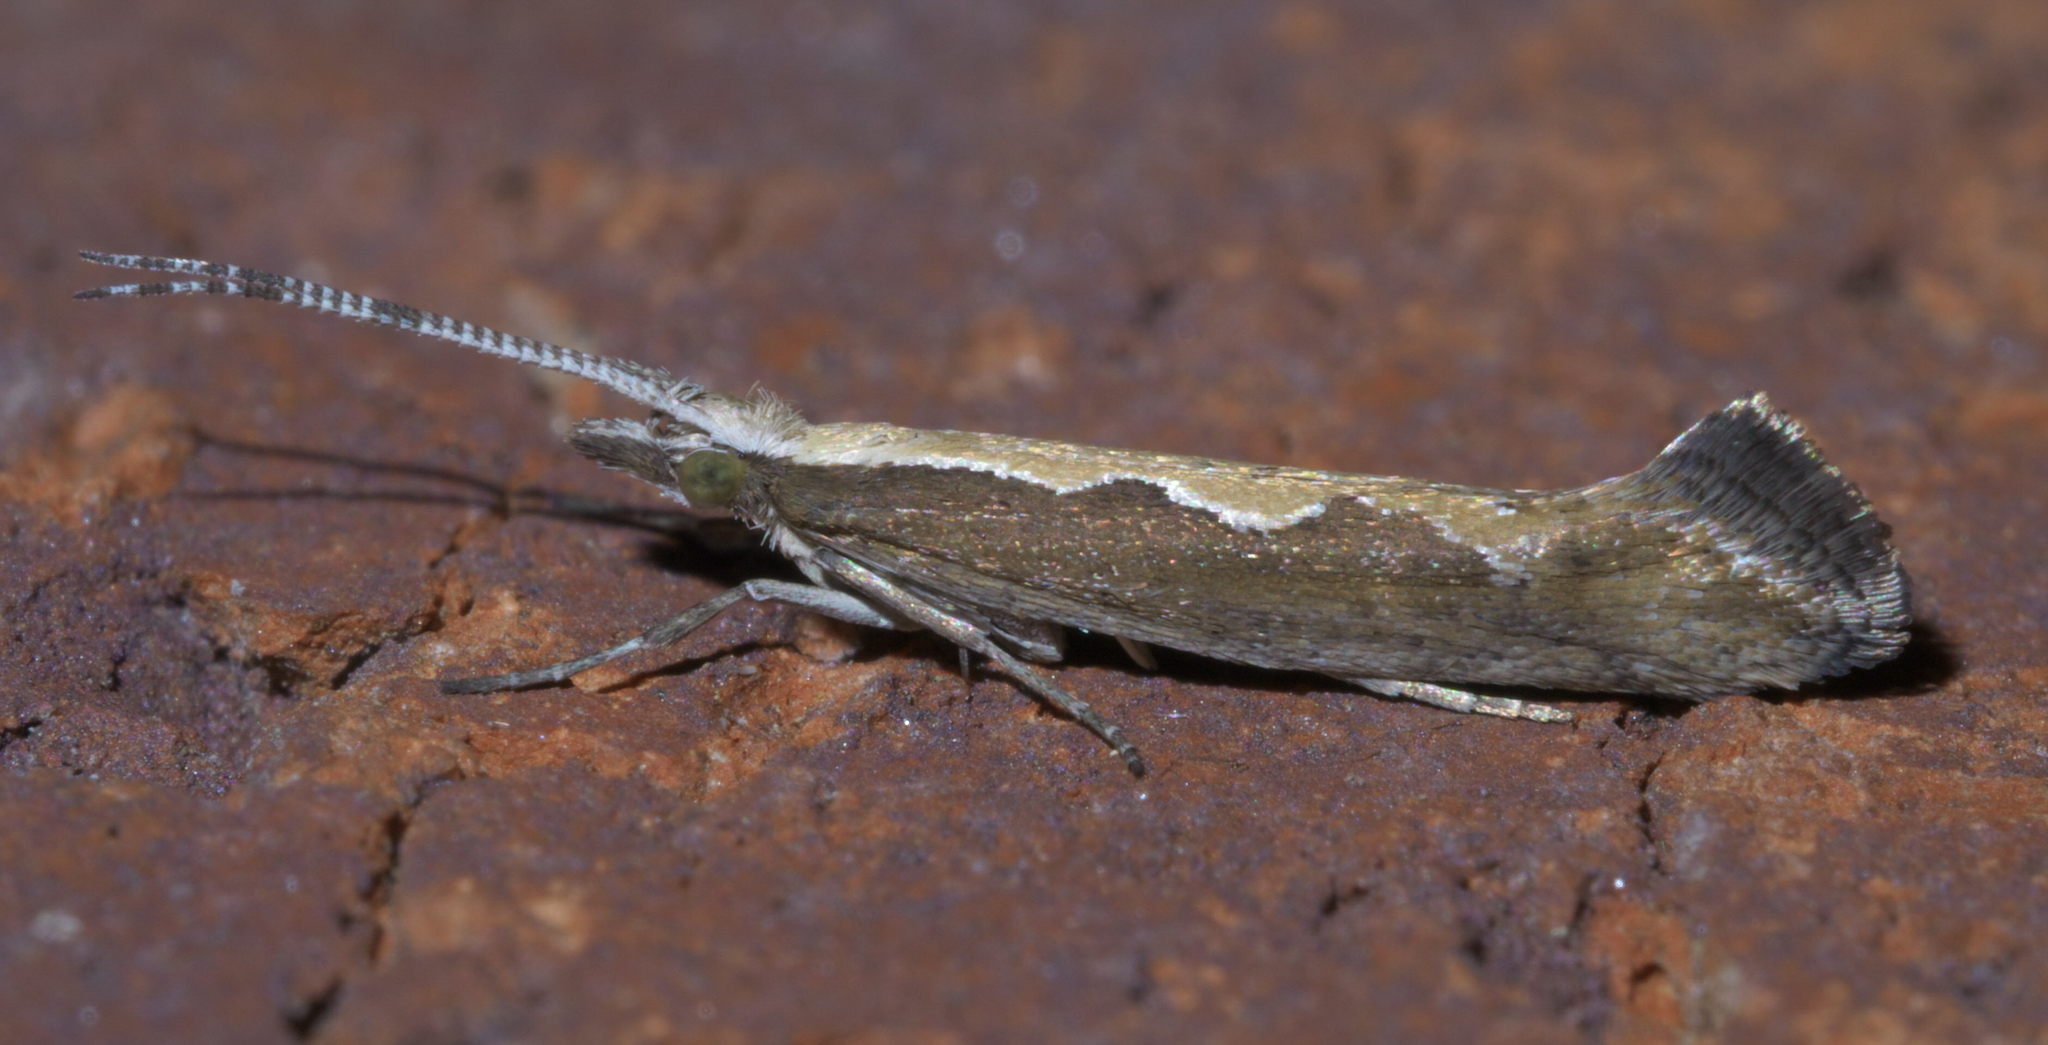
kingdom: Animalia
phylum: Arthropoda
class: Insecta
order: Lepidoptera
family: Plutellidae
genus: Plutella
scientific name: Plutella xylostella
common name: Diamond-back moth
